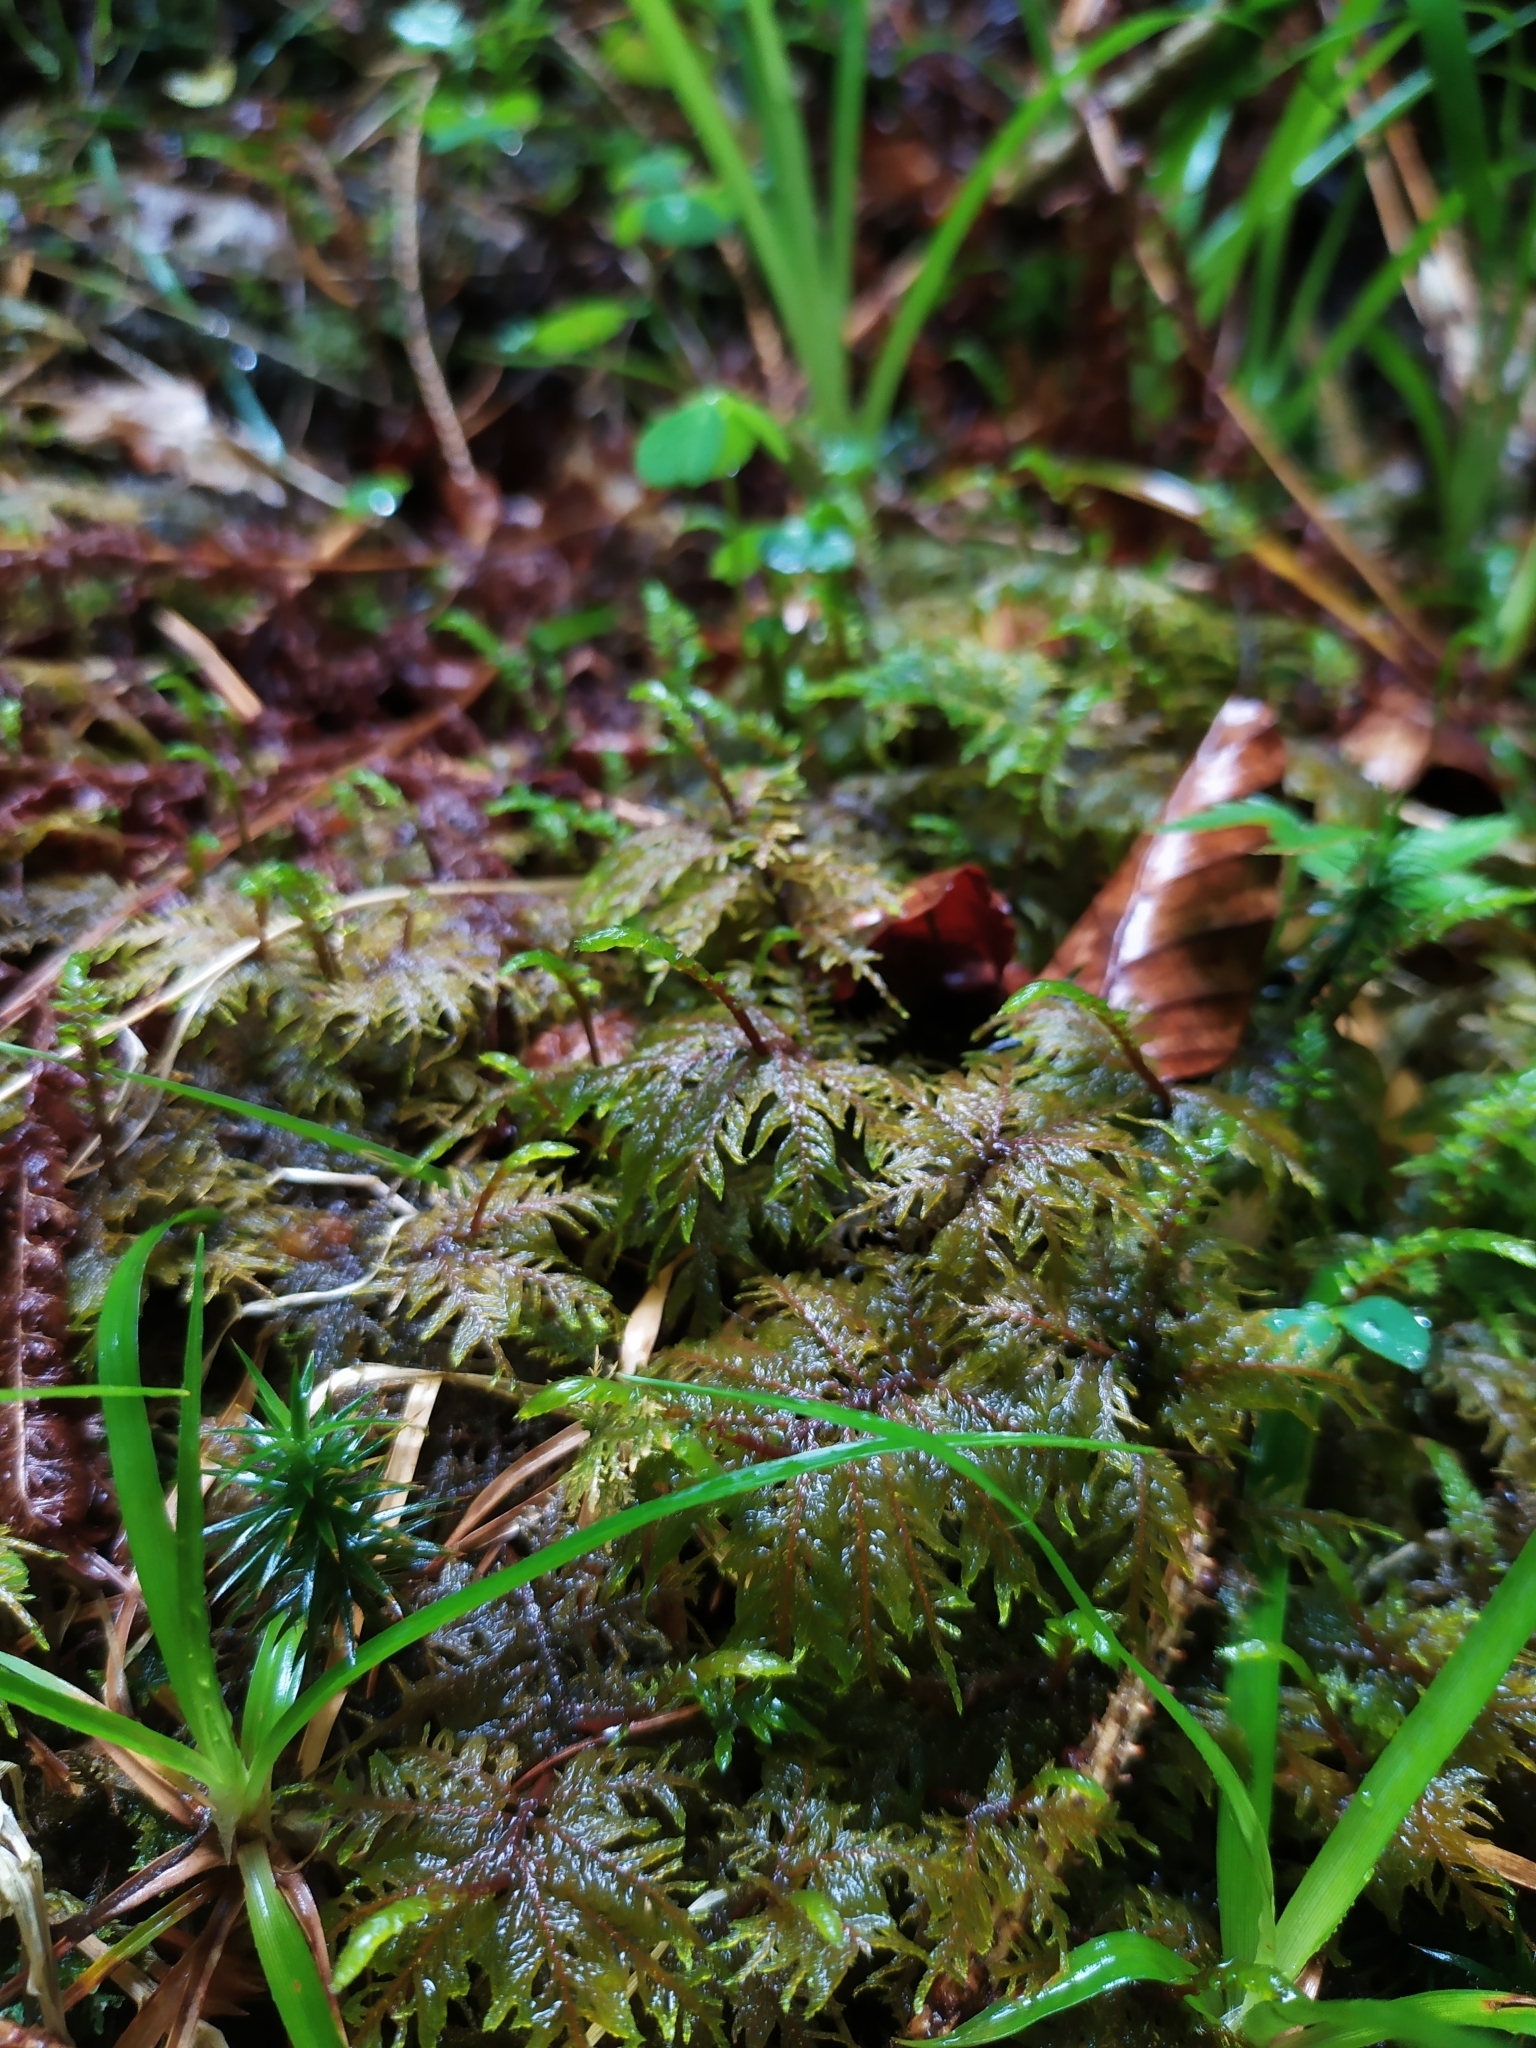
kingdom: Plantae
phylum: Bryophyta
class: Bryopsida
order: Hypnales
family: Hylocomiaceae
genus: Hylocomium
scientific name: Hylocomium splendens
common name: Stairstep moss
